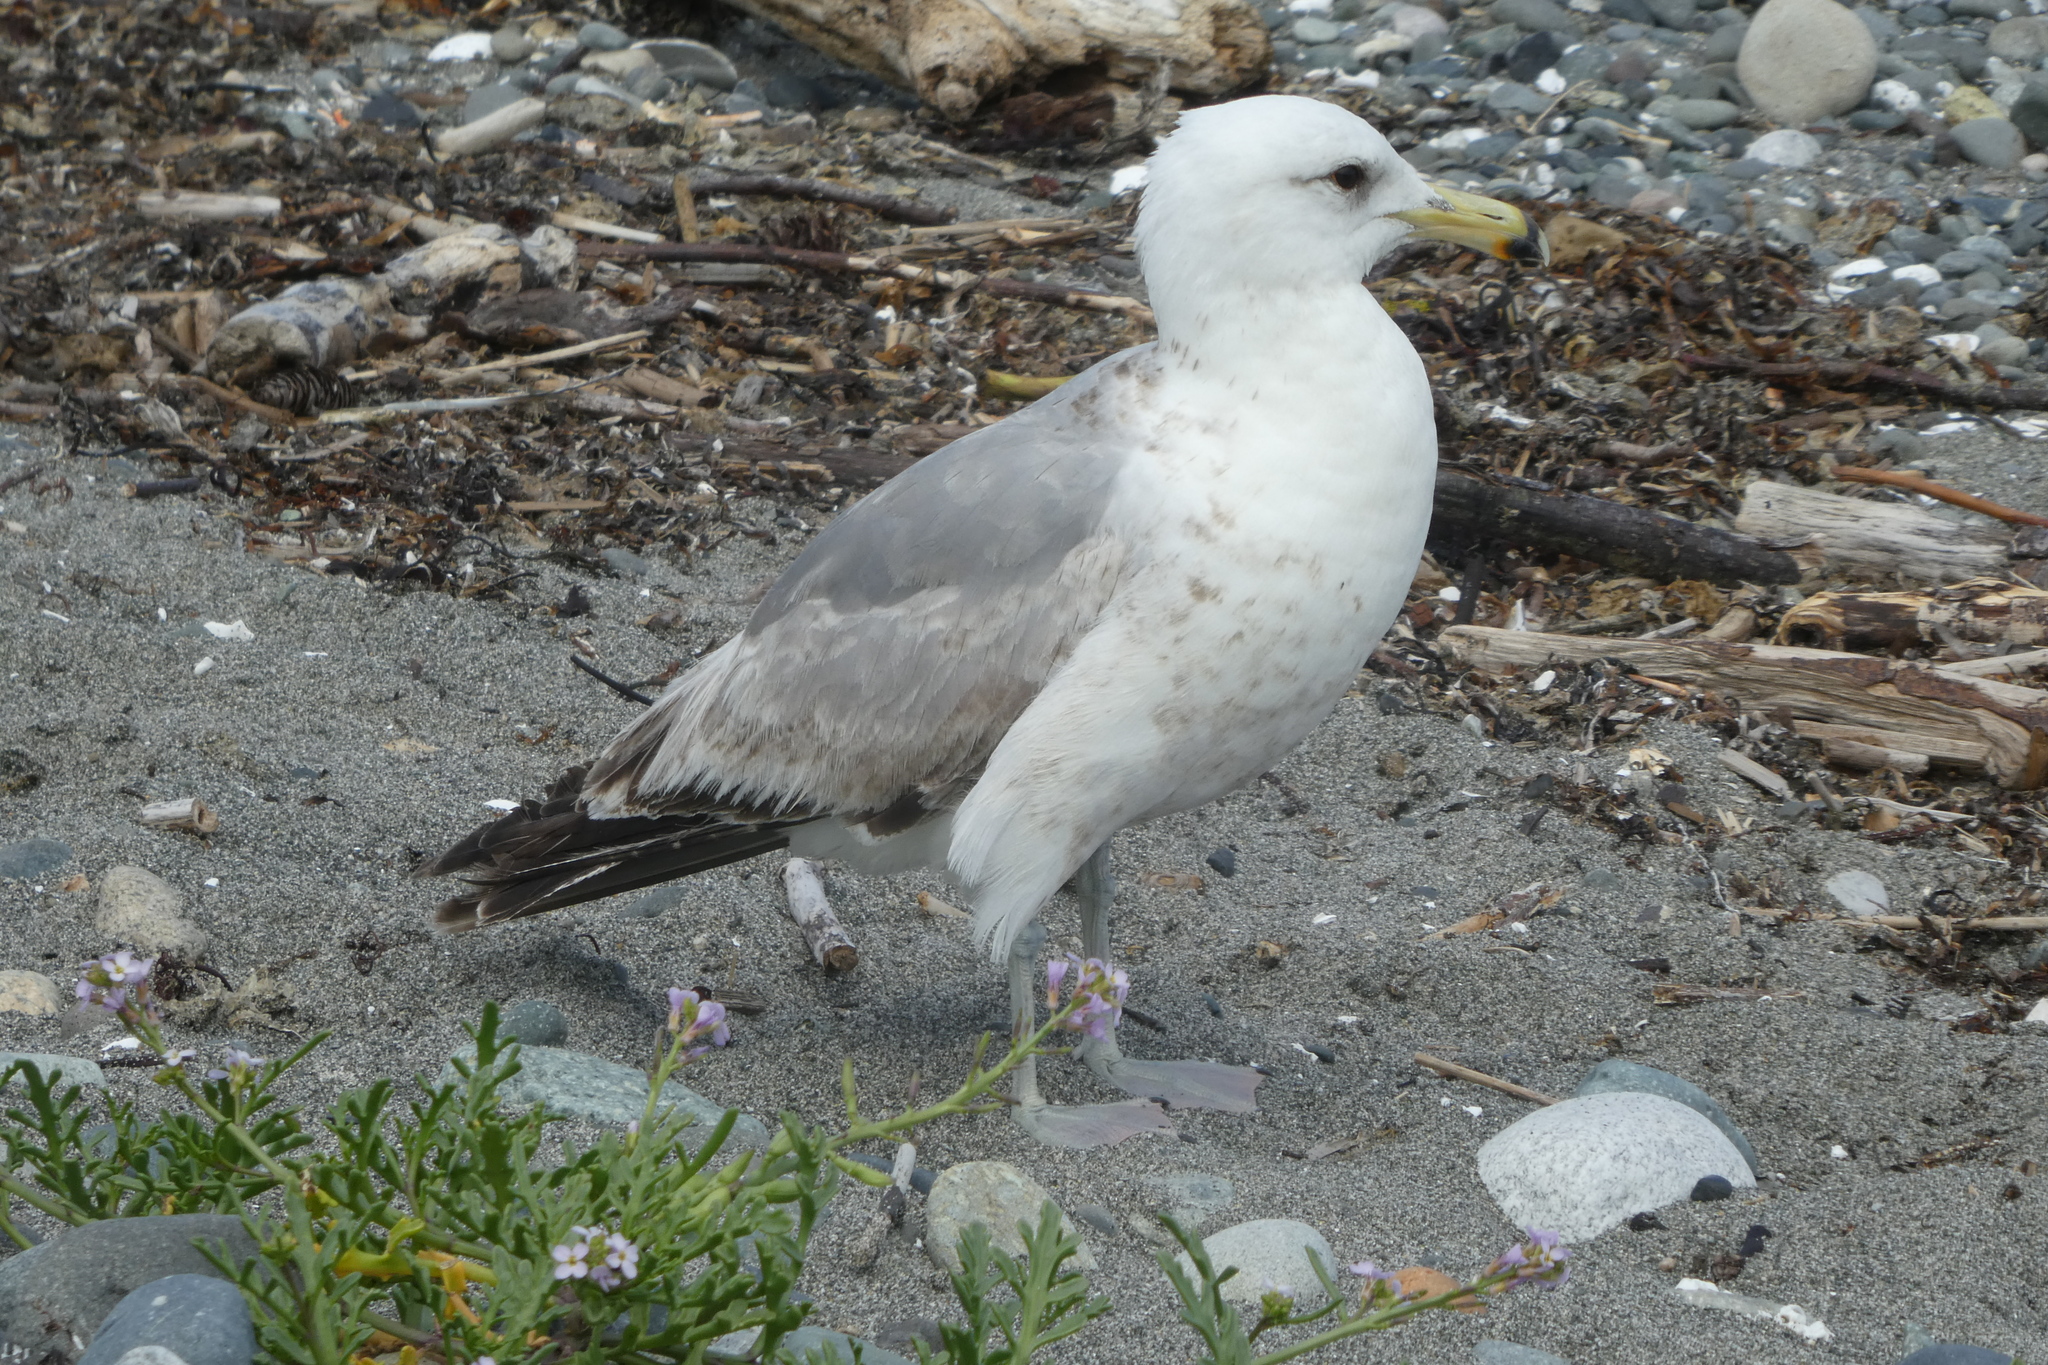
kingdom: Animalia
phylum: Chordata
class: Aves
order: Charadriiformes
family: Laridae
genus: Larus
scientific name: Larus californicus
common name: California gull
